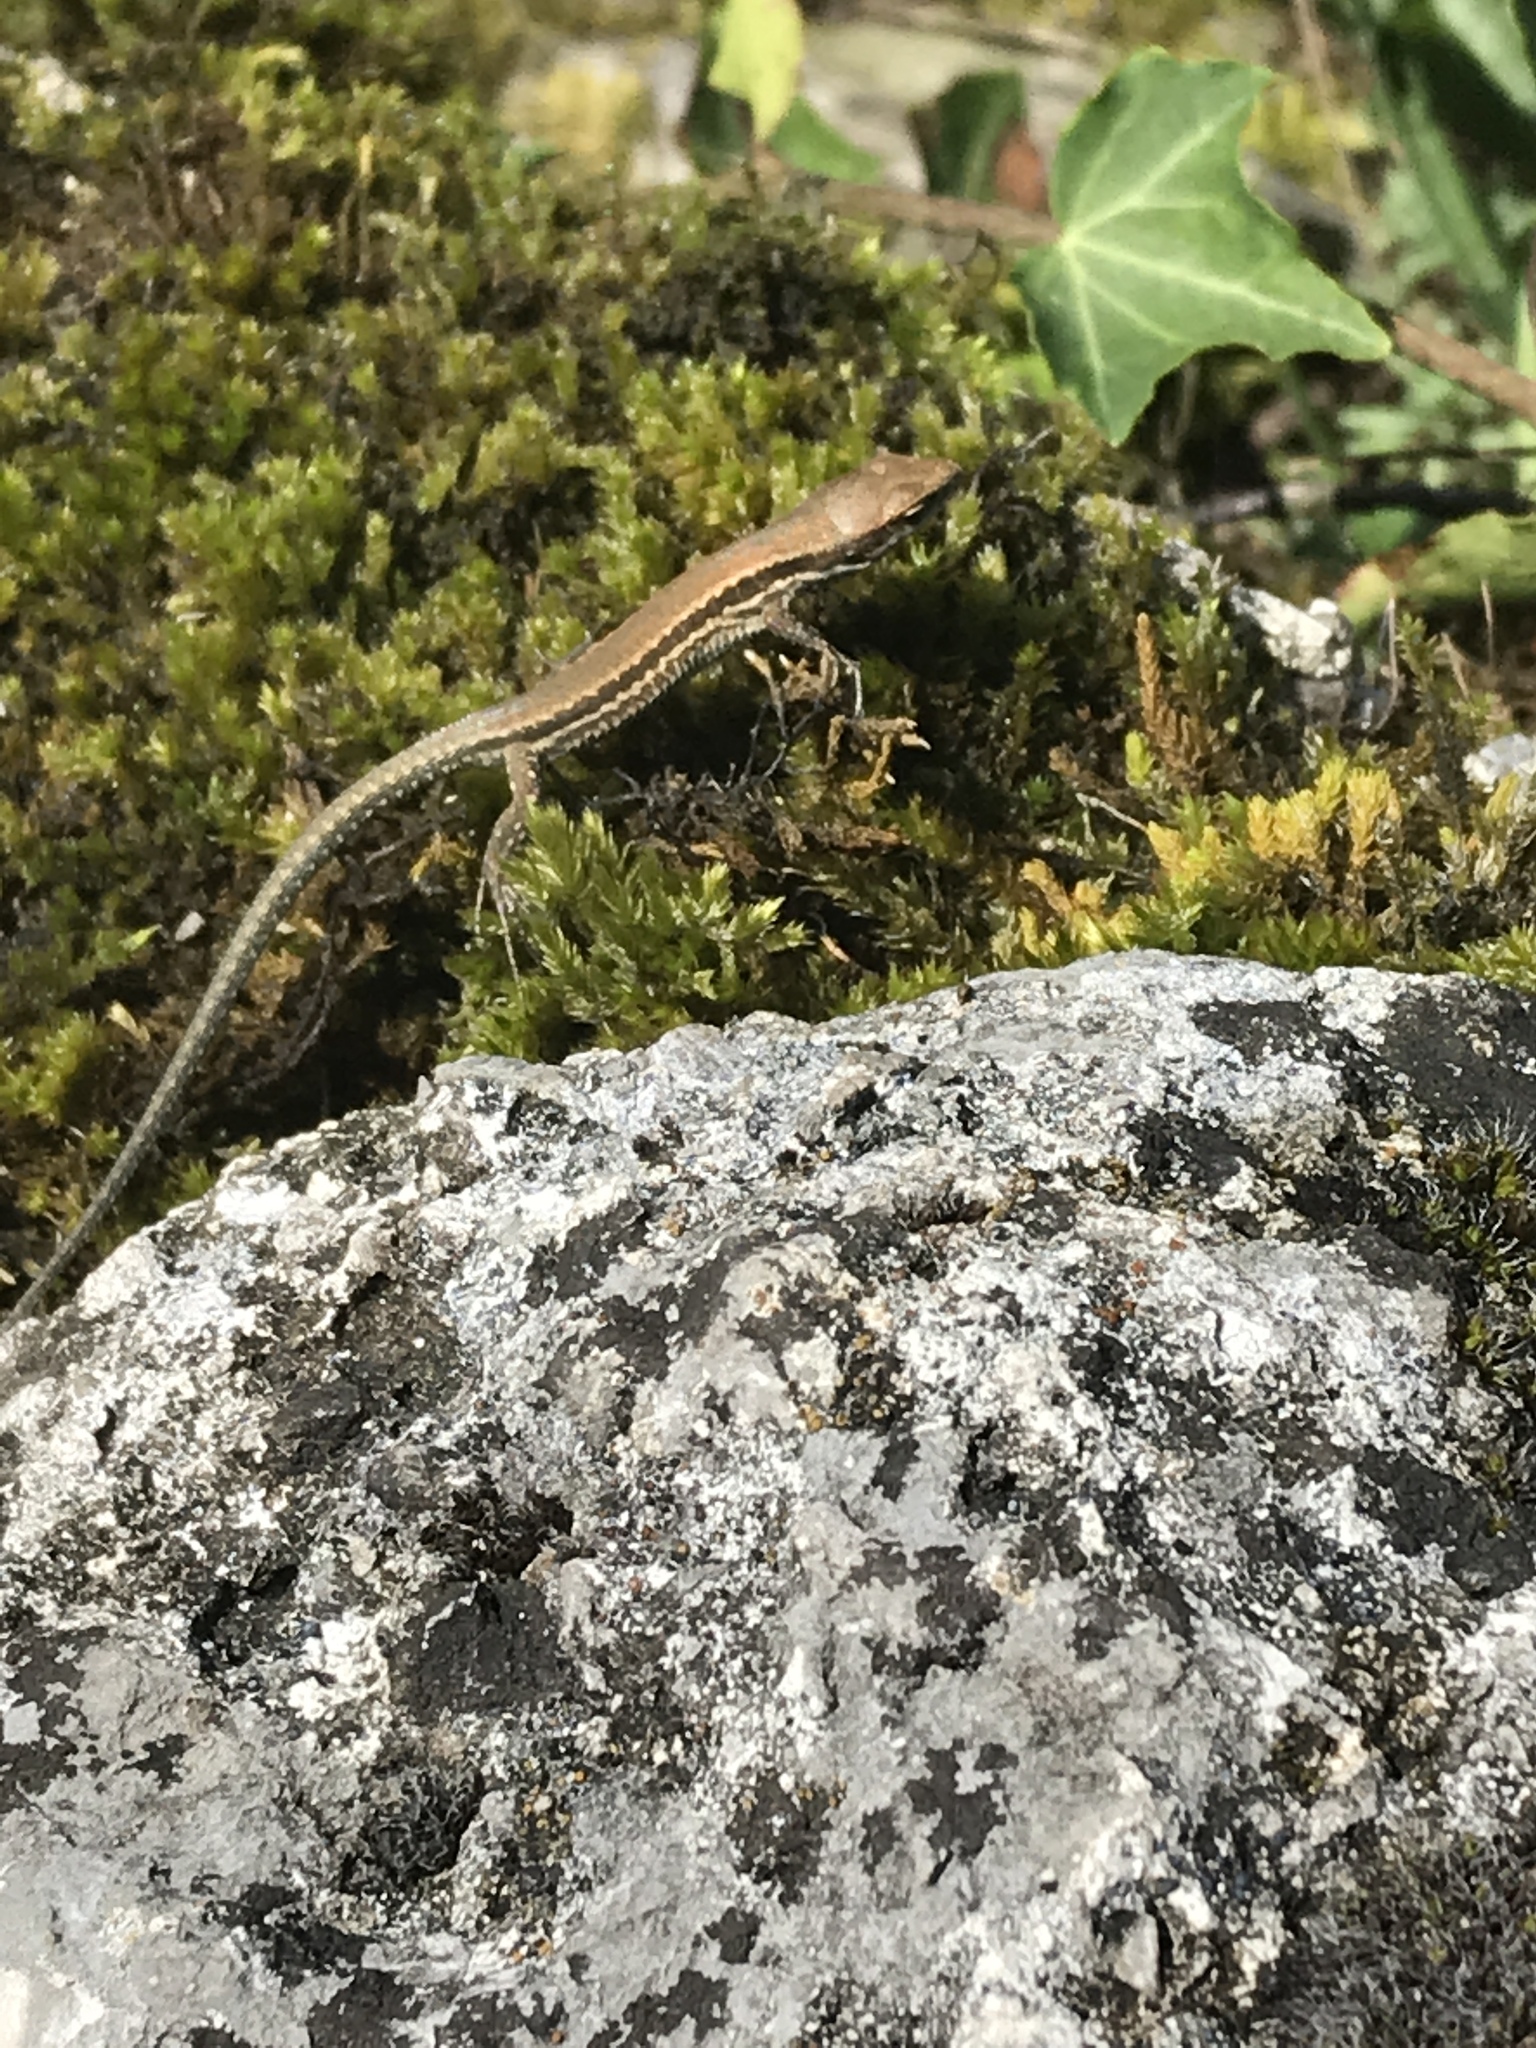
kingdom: Animalia
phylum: Chordata
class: Squamata
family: Lacertidae
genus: Podarcis
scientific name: Podarcis muralis
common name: Common wall lizard
